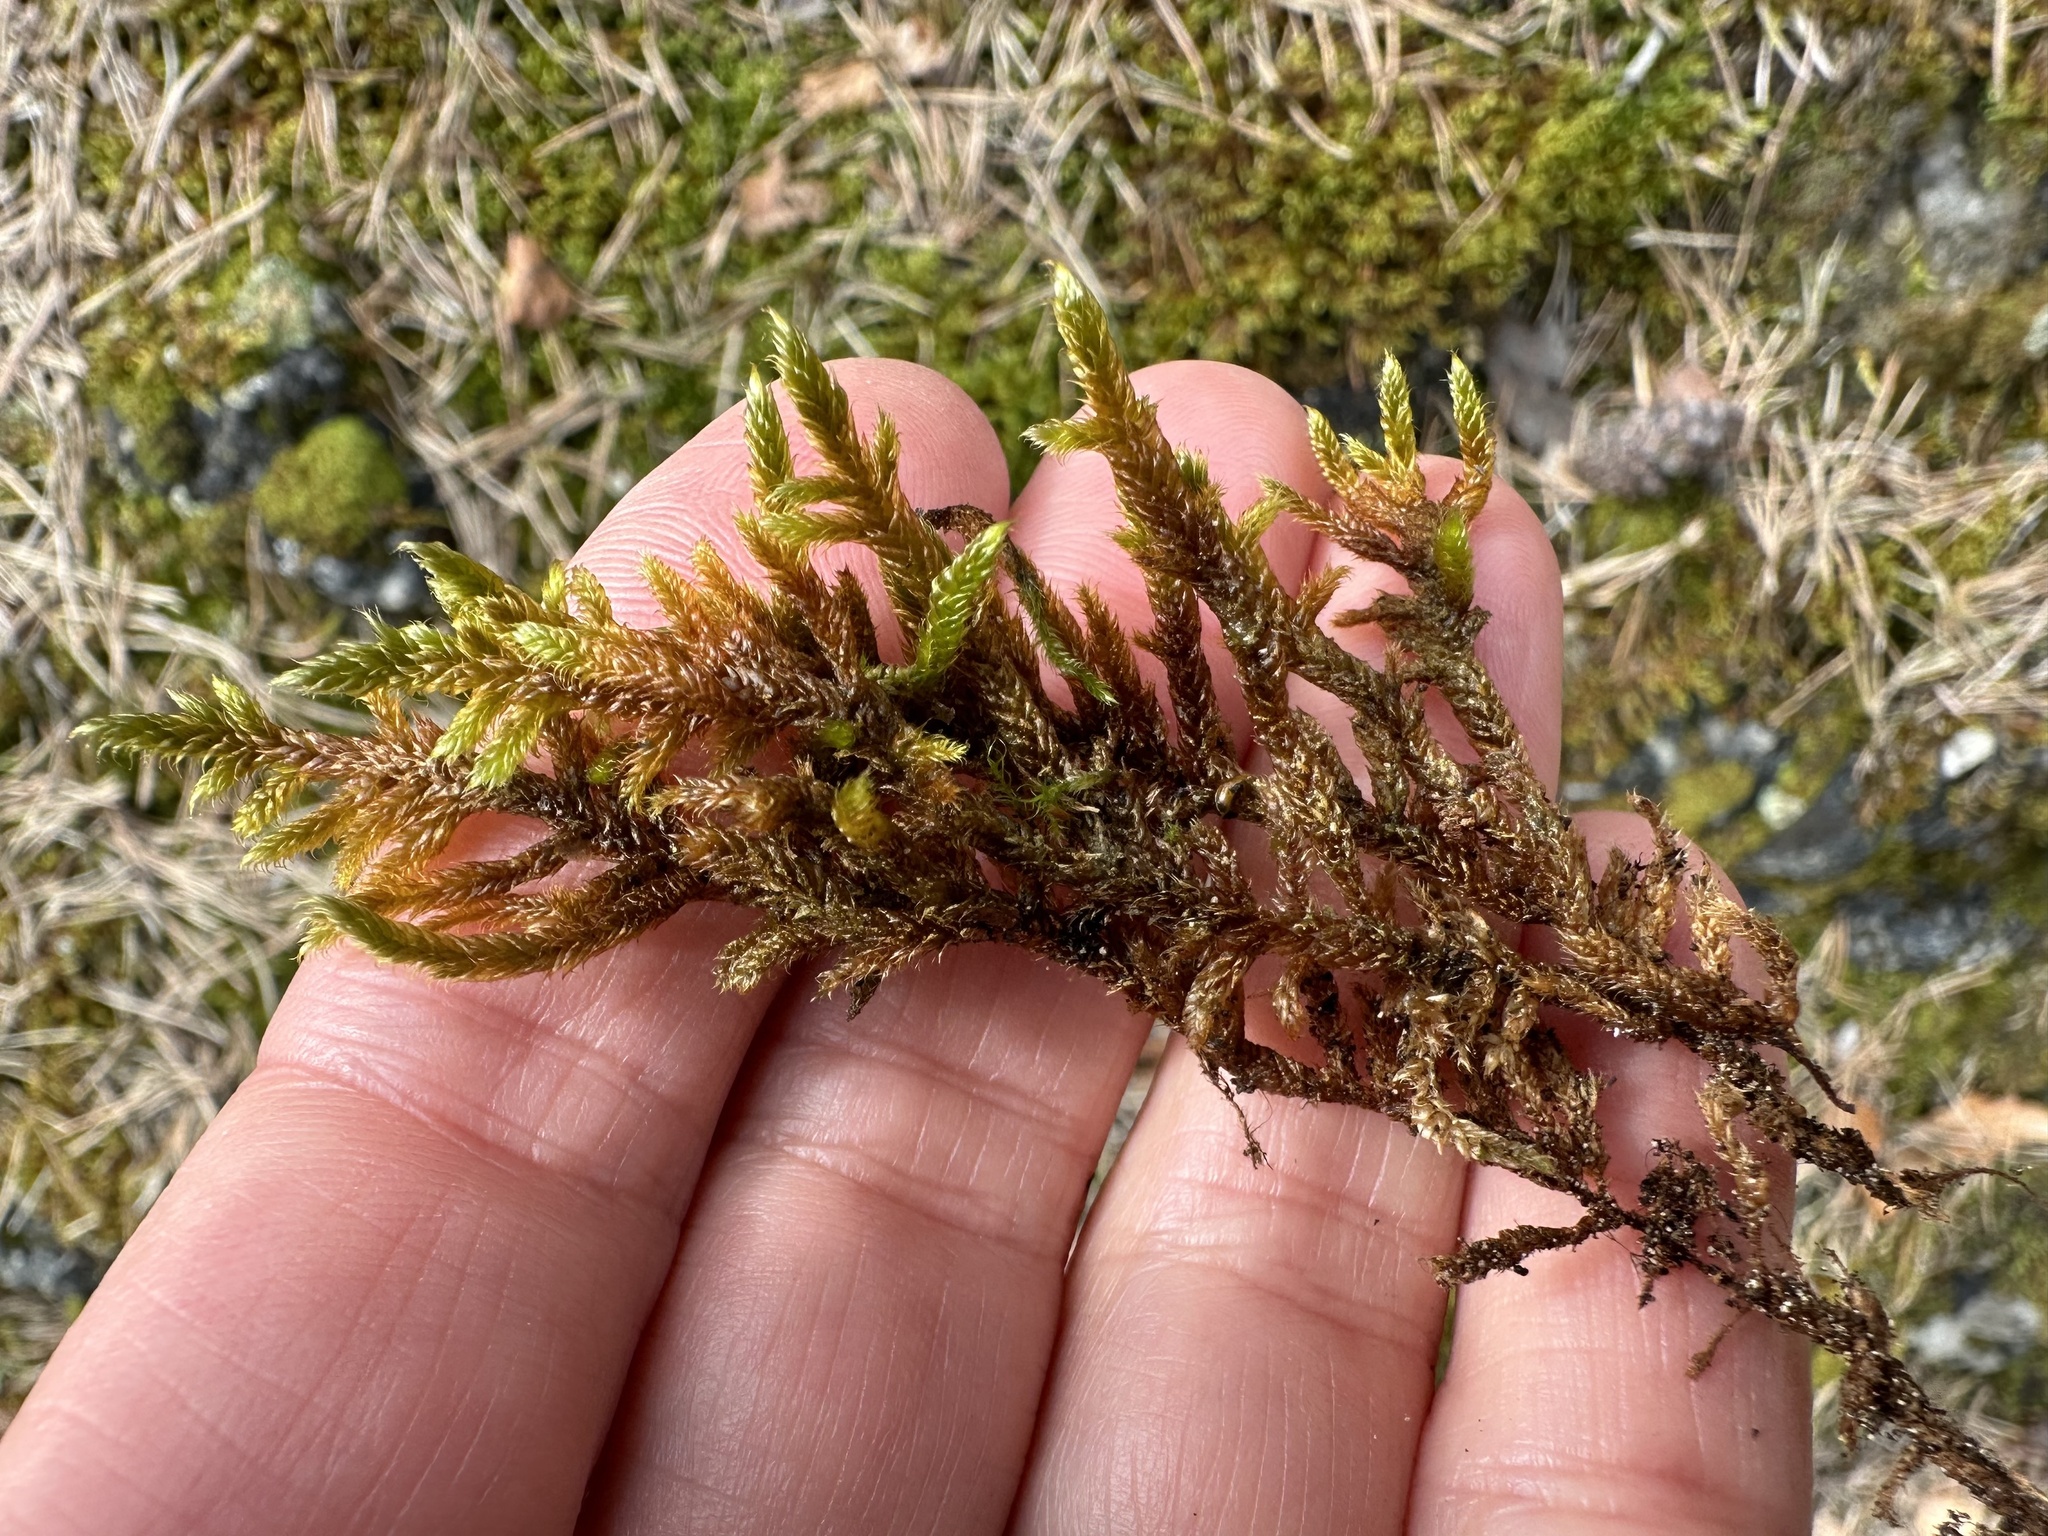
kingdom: Plantae
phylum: Bryophyta
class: Bryopsida
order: Hypnales
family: Hypnaceae
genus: Hypnum
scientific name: Hypnum cupressiforme
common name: Cypress-leaved plait-moss
